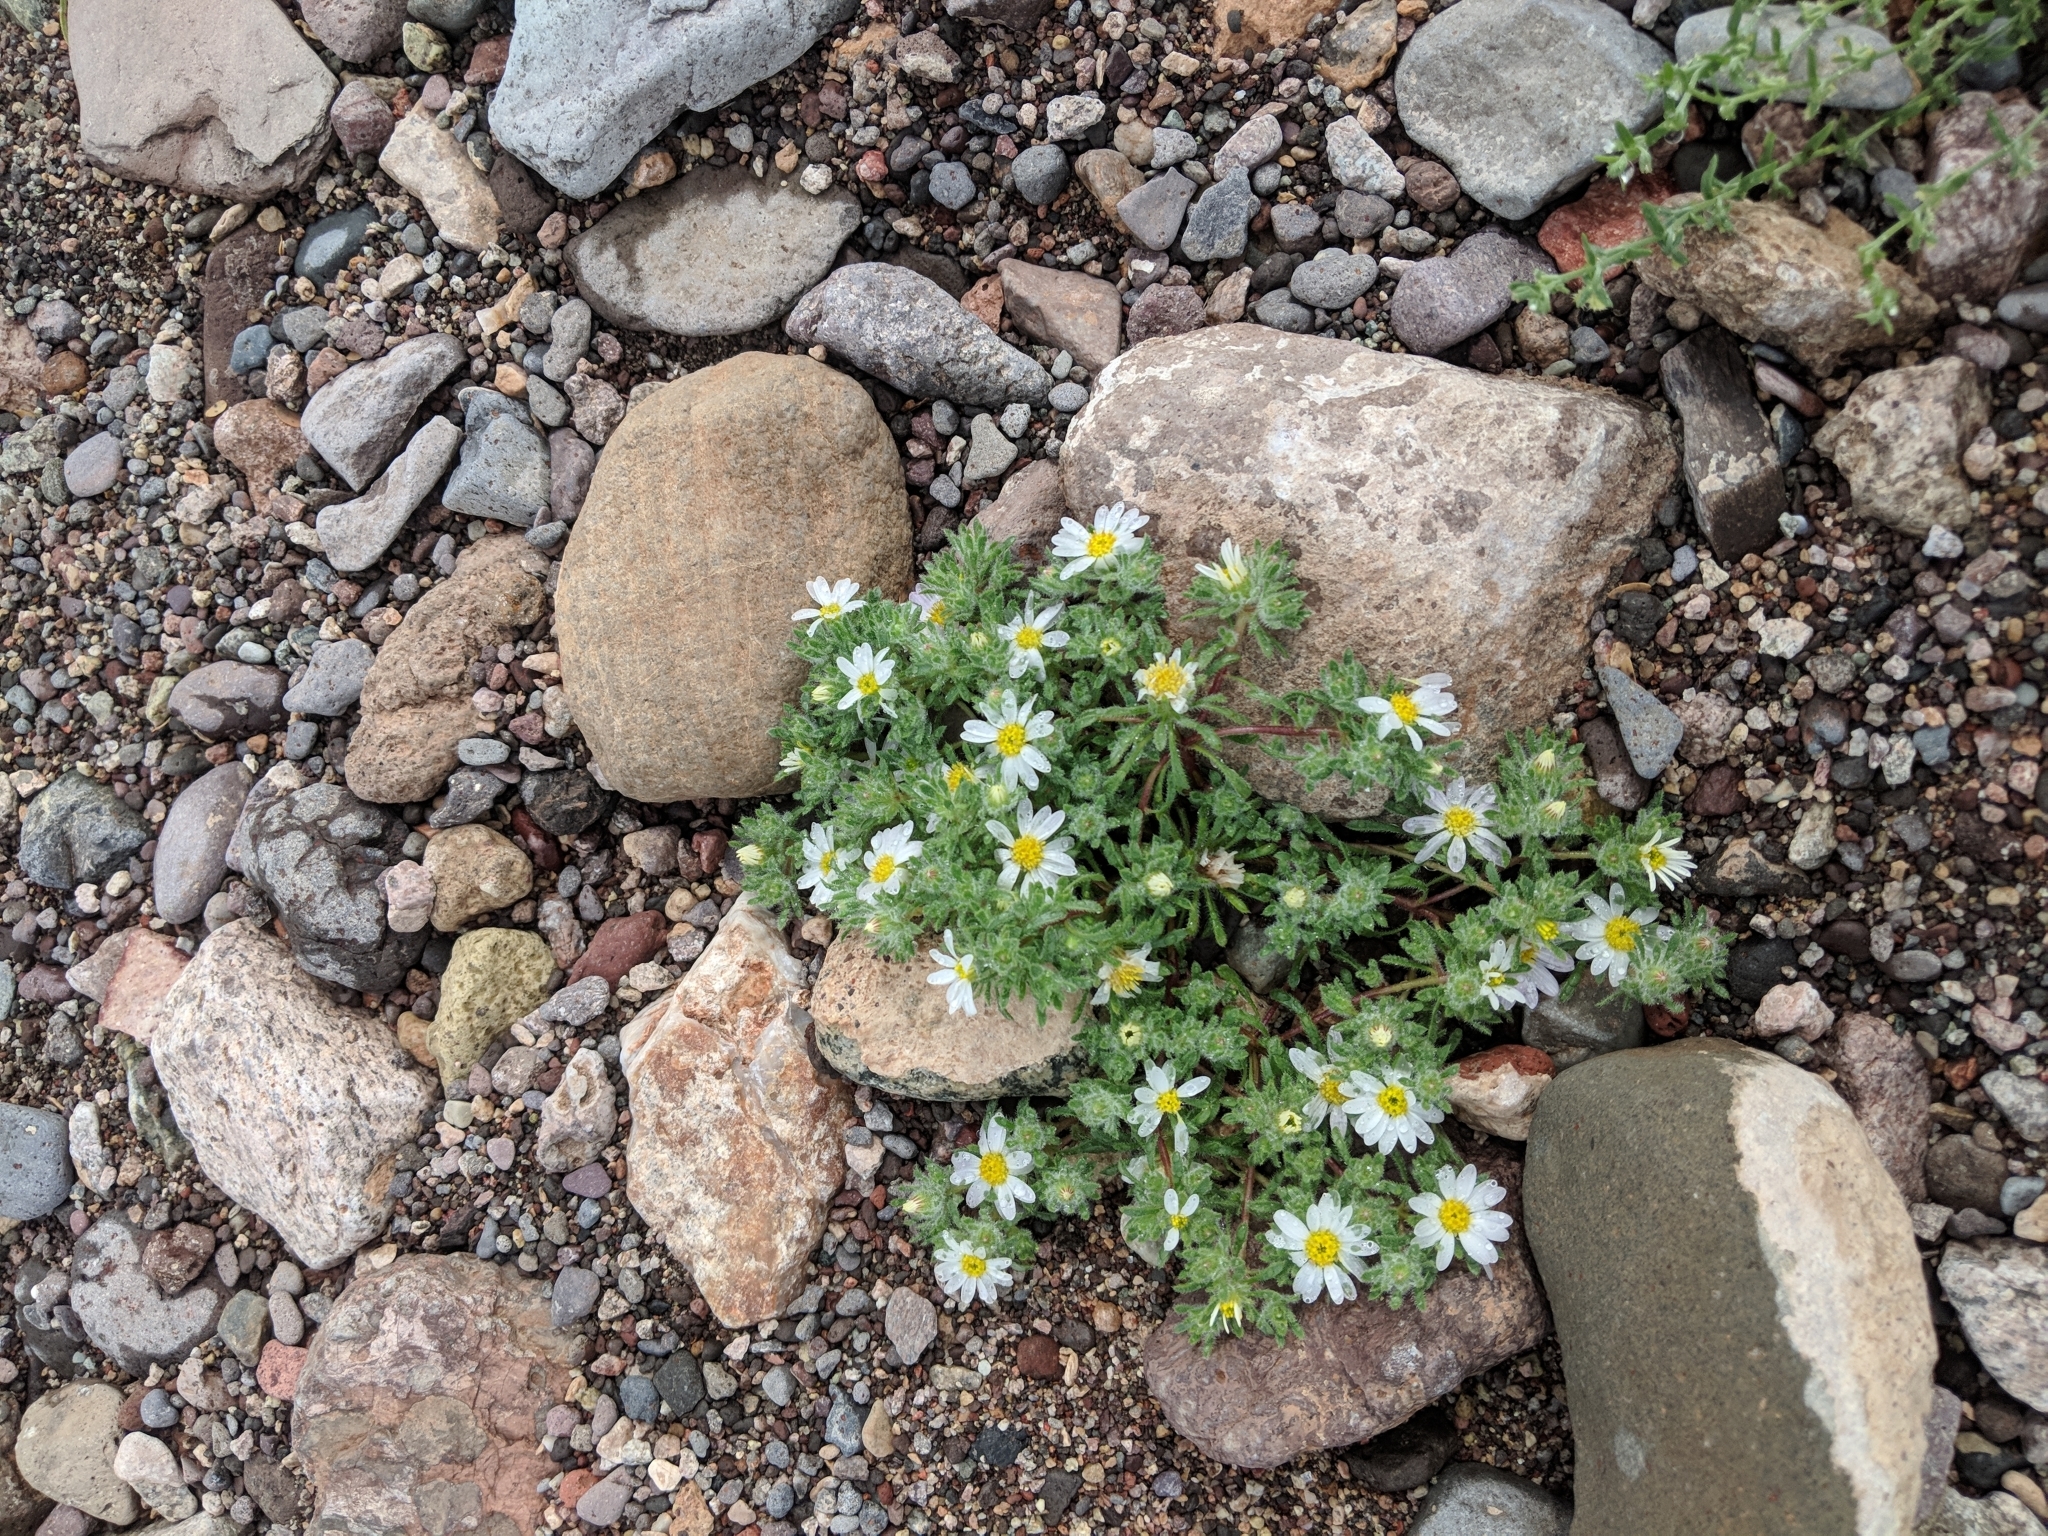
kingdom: Plantae
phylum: Tracheophyta
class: Magnoliopsida
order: Asterales
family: Asteraceae
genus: Monoptilon
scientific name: Monoptilon bellioides
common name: Bristly desertstar
